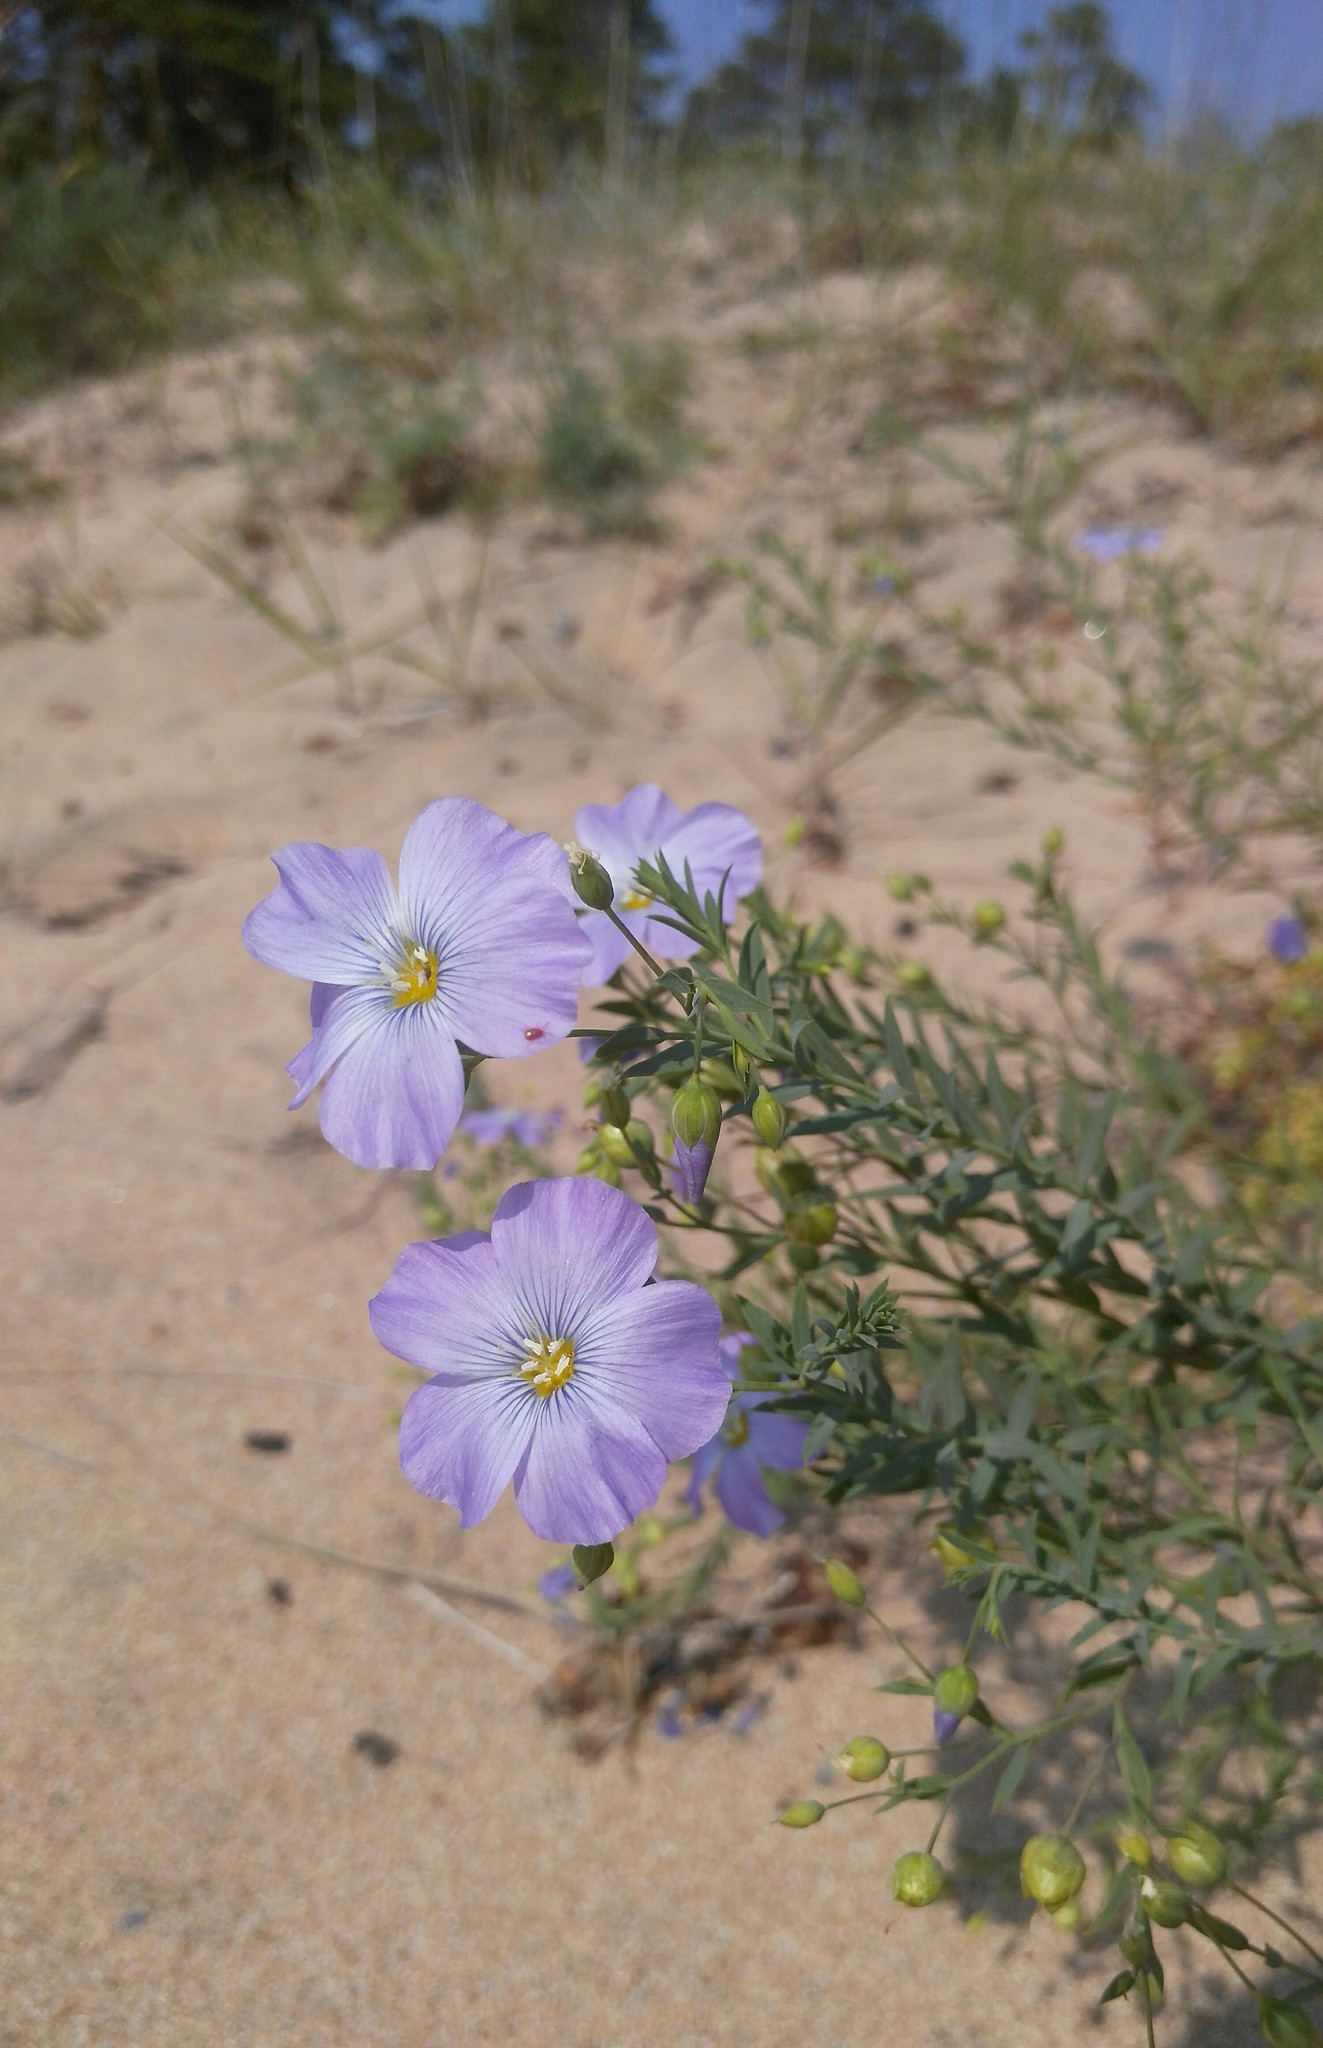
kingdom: Plantae
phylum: Tracheophyta
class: Magnoliopsida
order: Malpighiales
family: Linaceae
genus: Linum
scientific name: Linum perenne
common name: Blue flax
